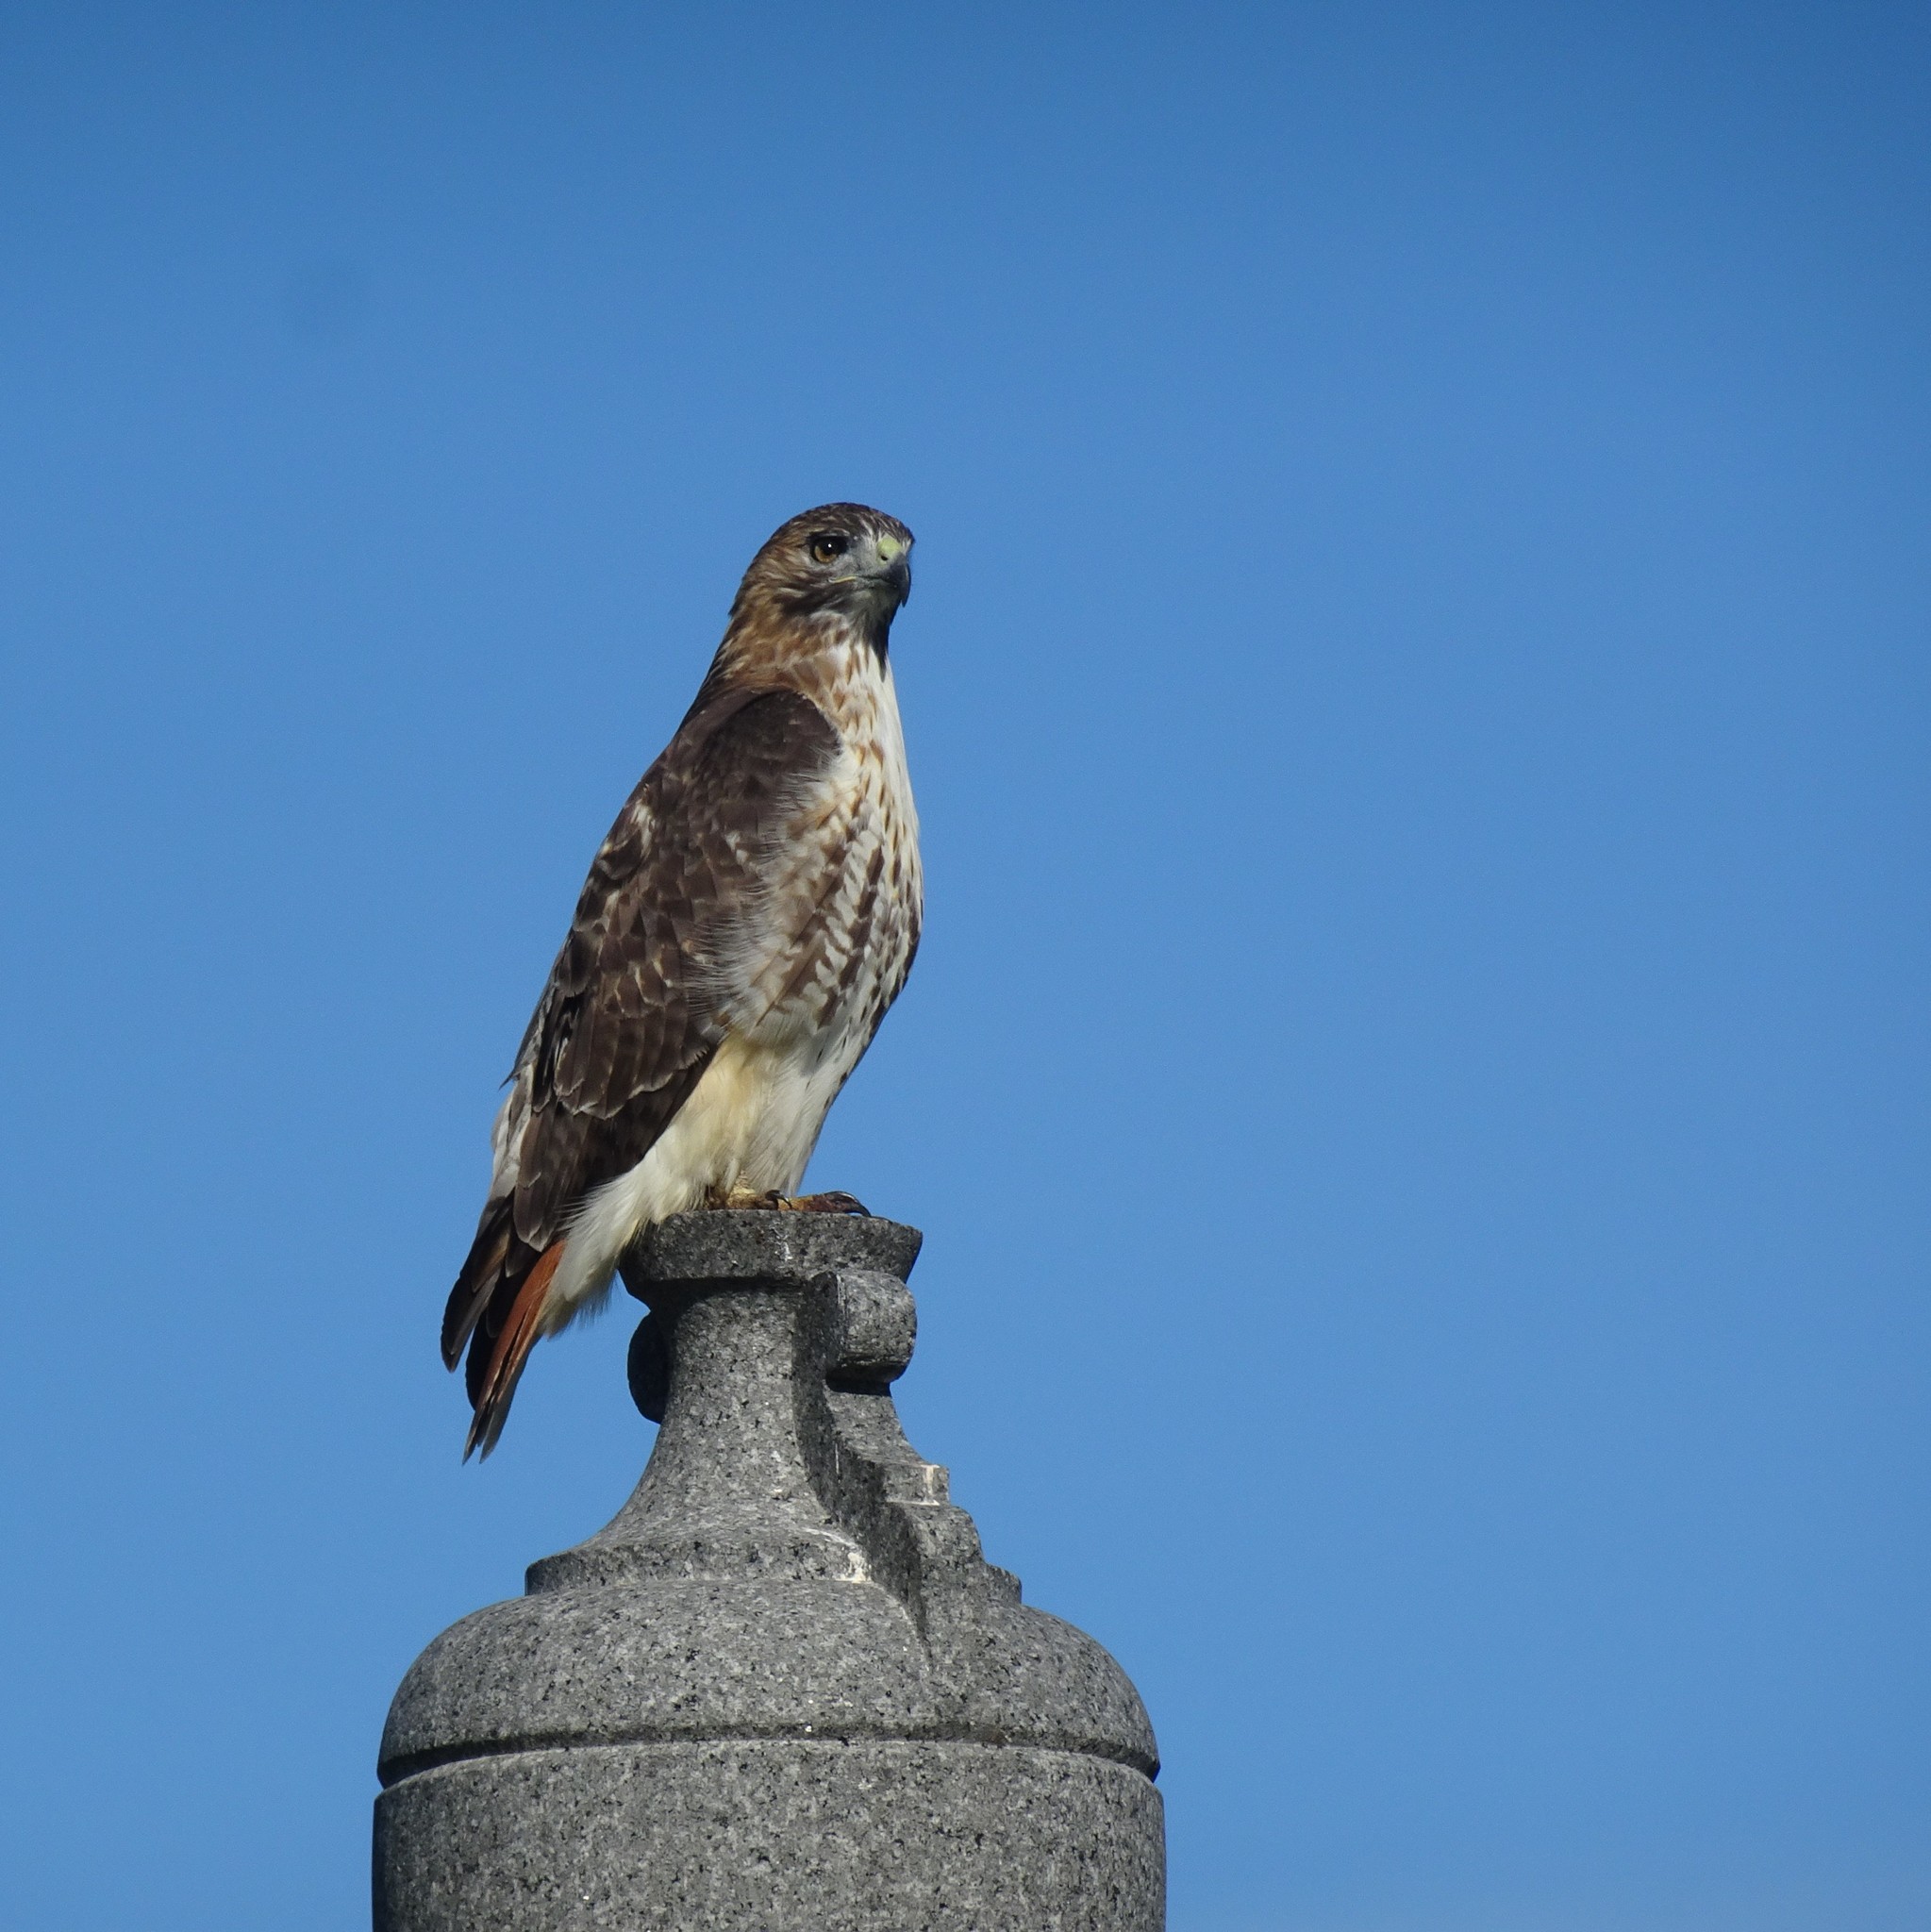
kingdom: Animalia
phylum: Chordata
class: Aves
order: Accipitriformes
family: Accipitridae
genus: Buteo
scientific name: Buteo jamaicensis
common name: Red-tailed hawk
